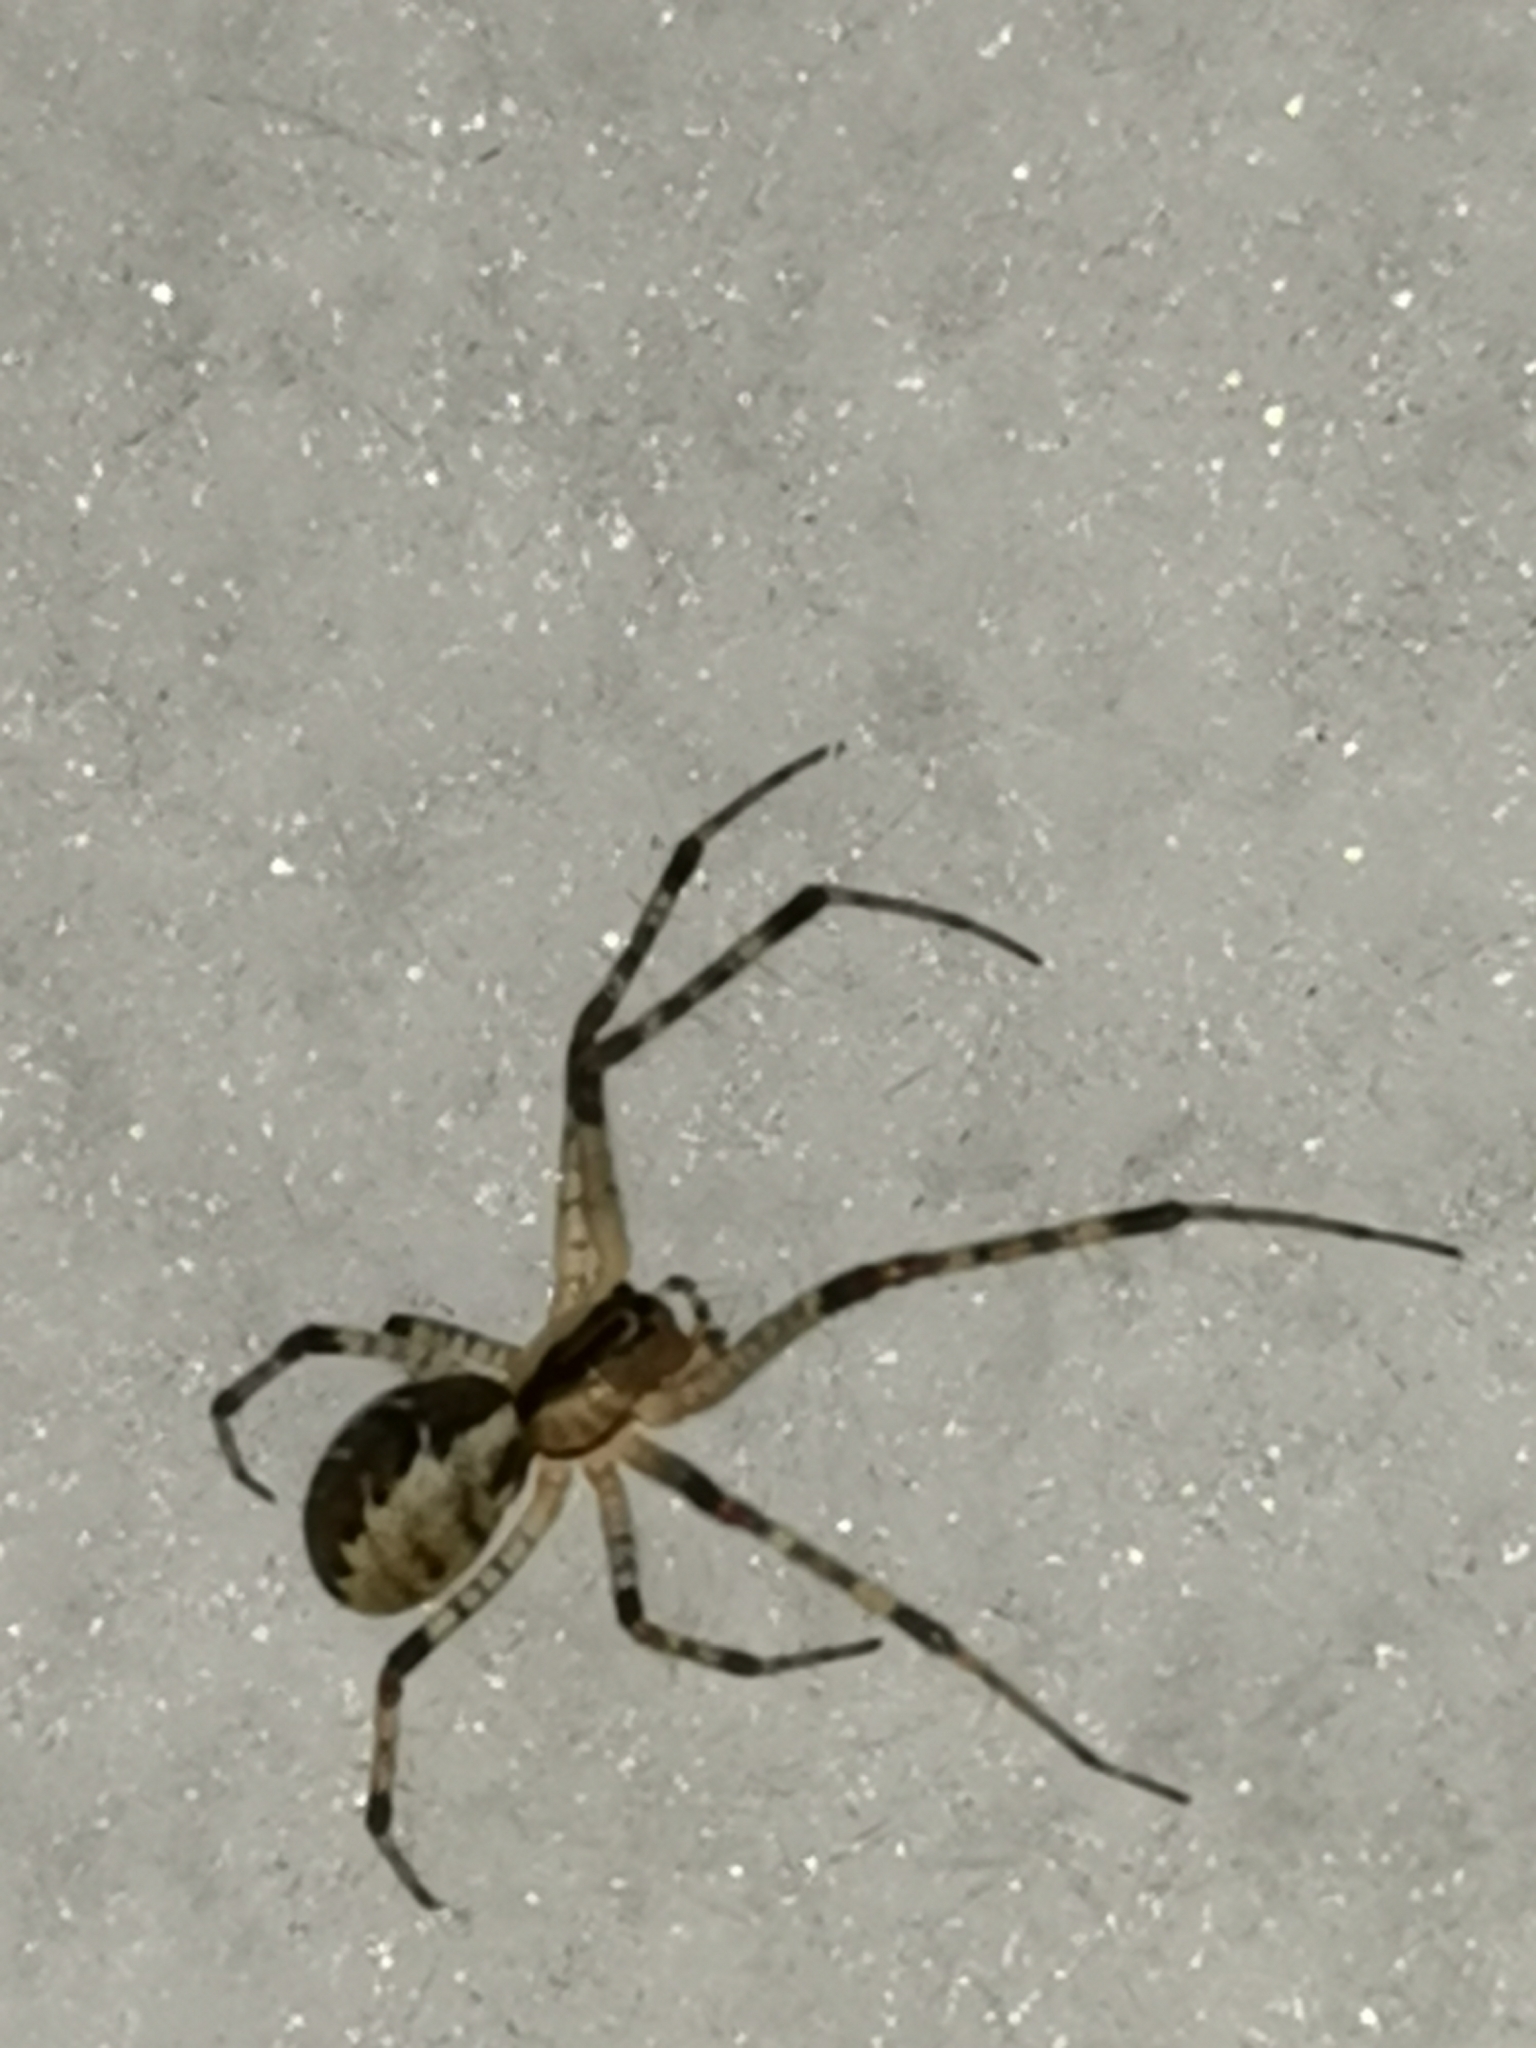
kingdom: Animalia
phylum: Arthropoda
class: Arachnida
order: Araneae
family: Linyphiidae
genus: Pityohyphantes
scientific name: Pityohyphantes phrygianus
